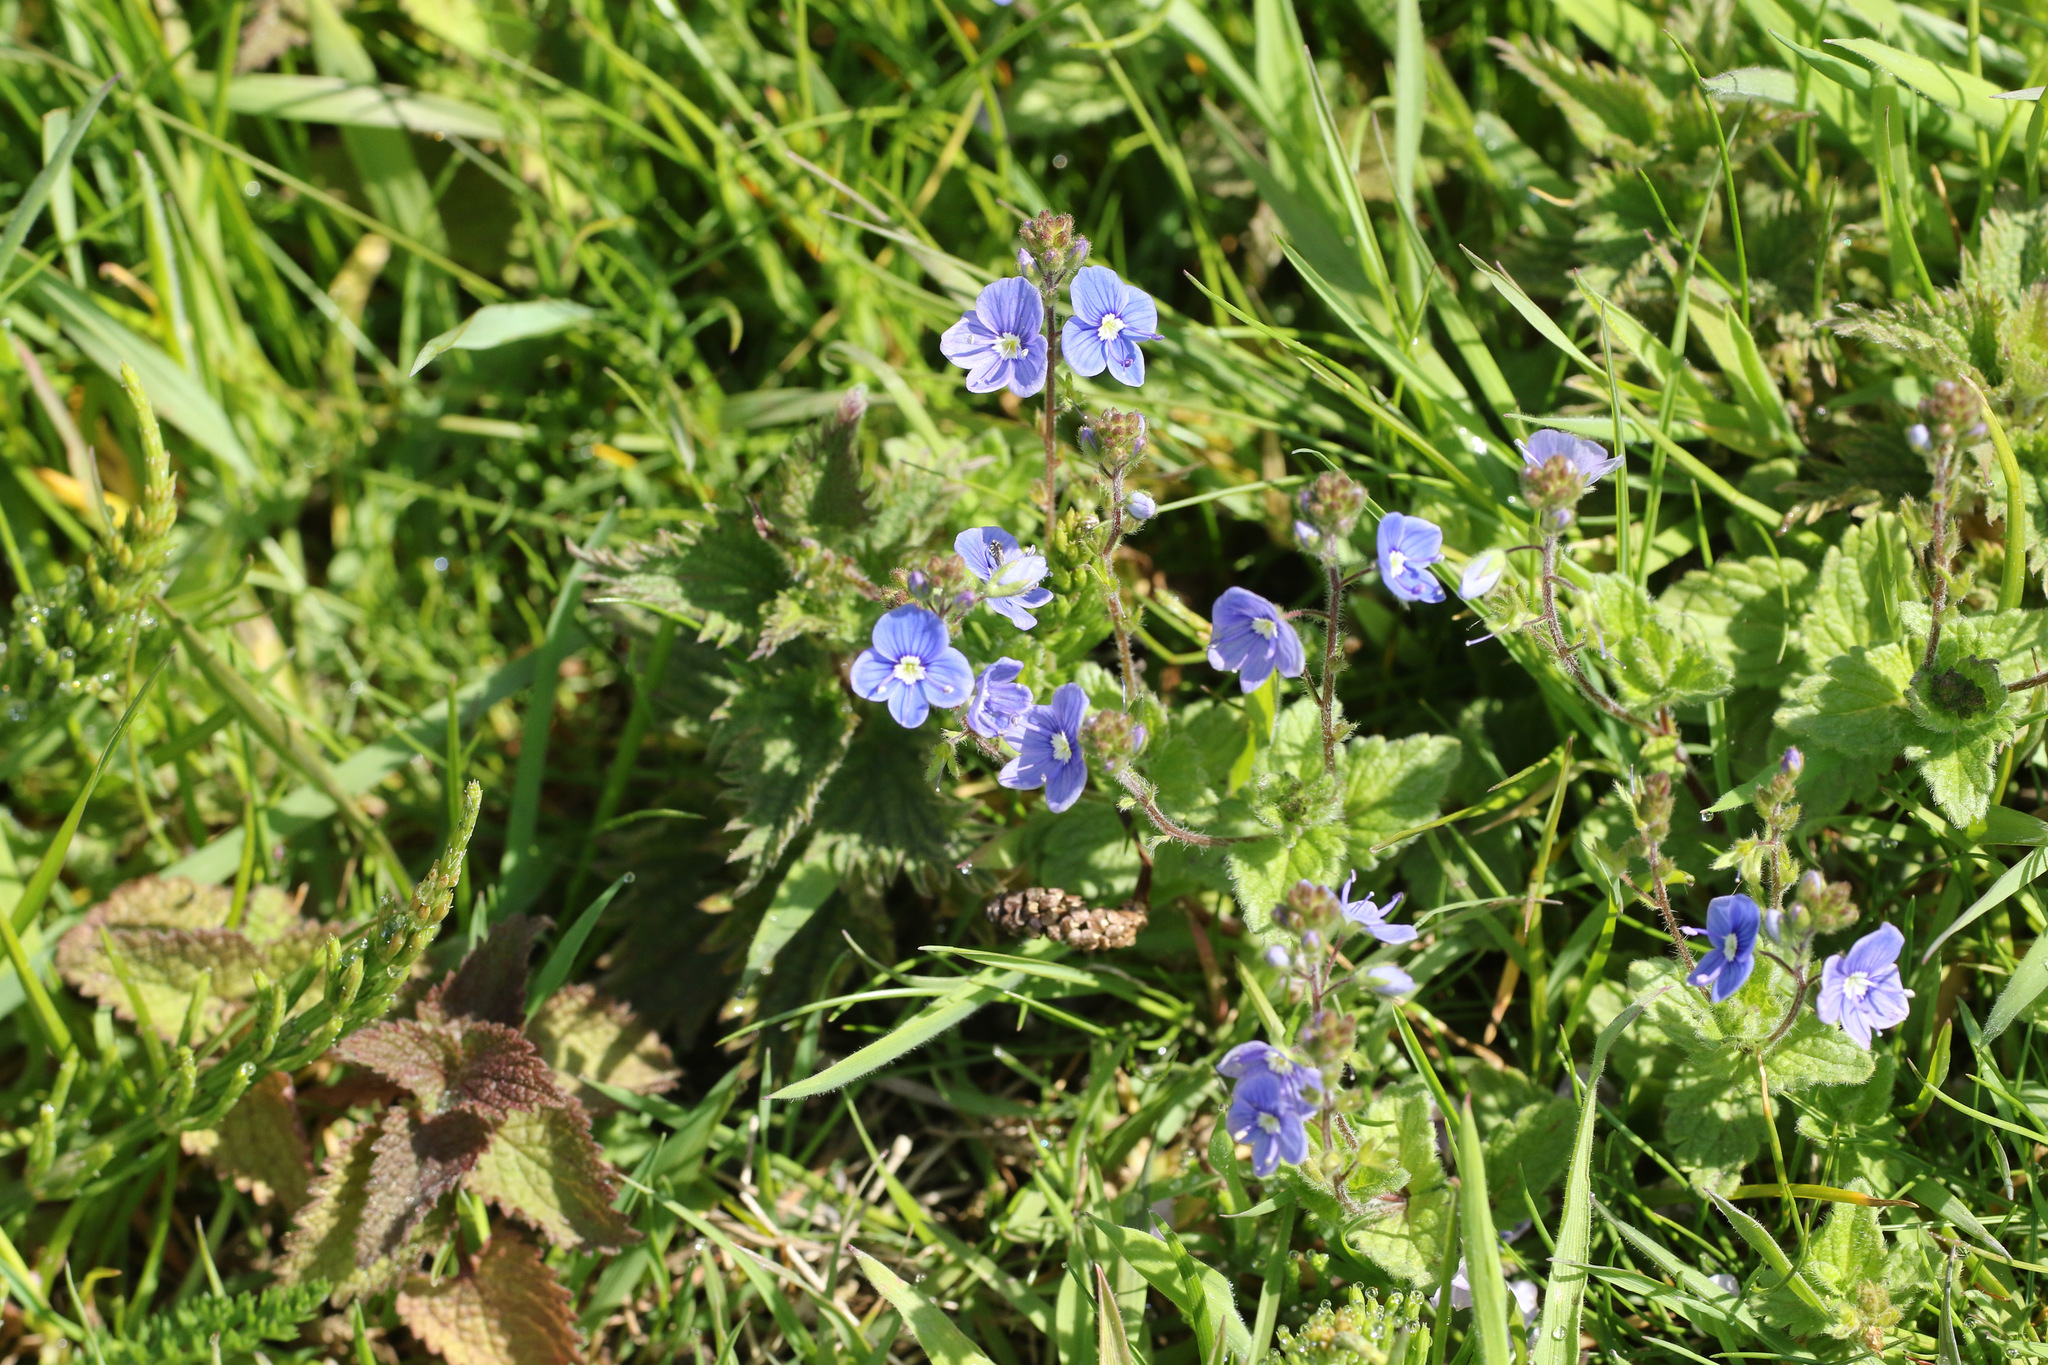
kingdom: Plantae
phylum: Tracheophyta
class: Magnoliopsida
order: Lamiales
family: Plantaginaceae
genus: Veronica
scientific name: Veronica chamaedrys
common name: Germander speedwell
